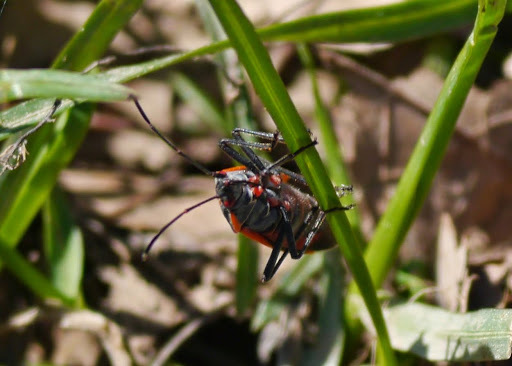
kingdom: Animalia
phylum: Arthropoda
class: Insecta
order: Hemiptera
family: Rhopalidae
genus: Boisea
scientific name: Boisea trivittata
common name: Boxelder bug
